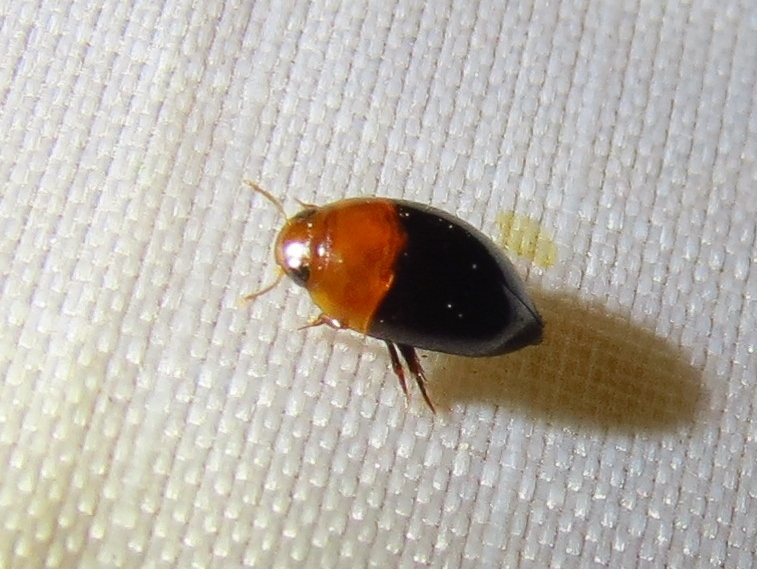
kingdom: Animalia
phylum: Arthropoda
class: Insecta
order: Coleoptera
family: Noteridae
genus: Hydrocanthus
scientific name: Hydrocanthus atripennis
